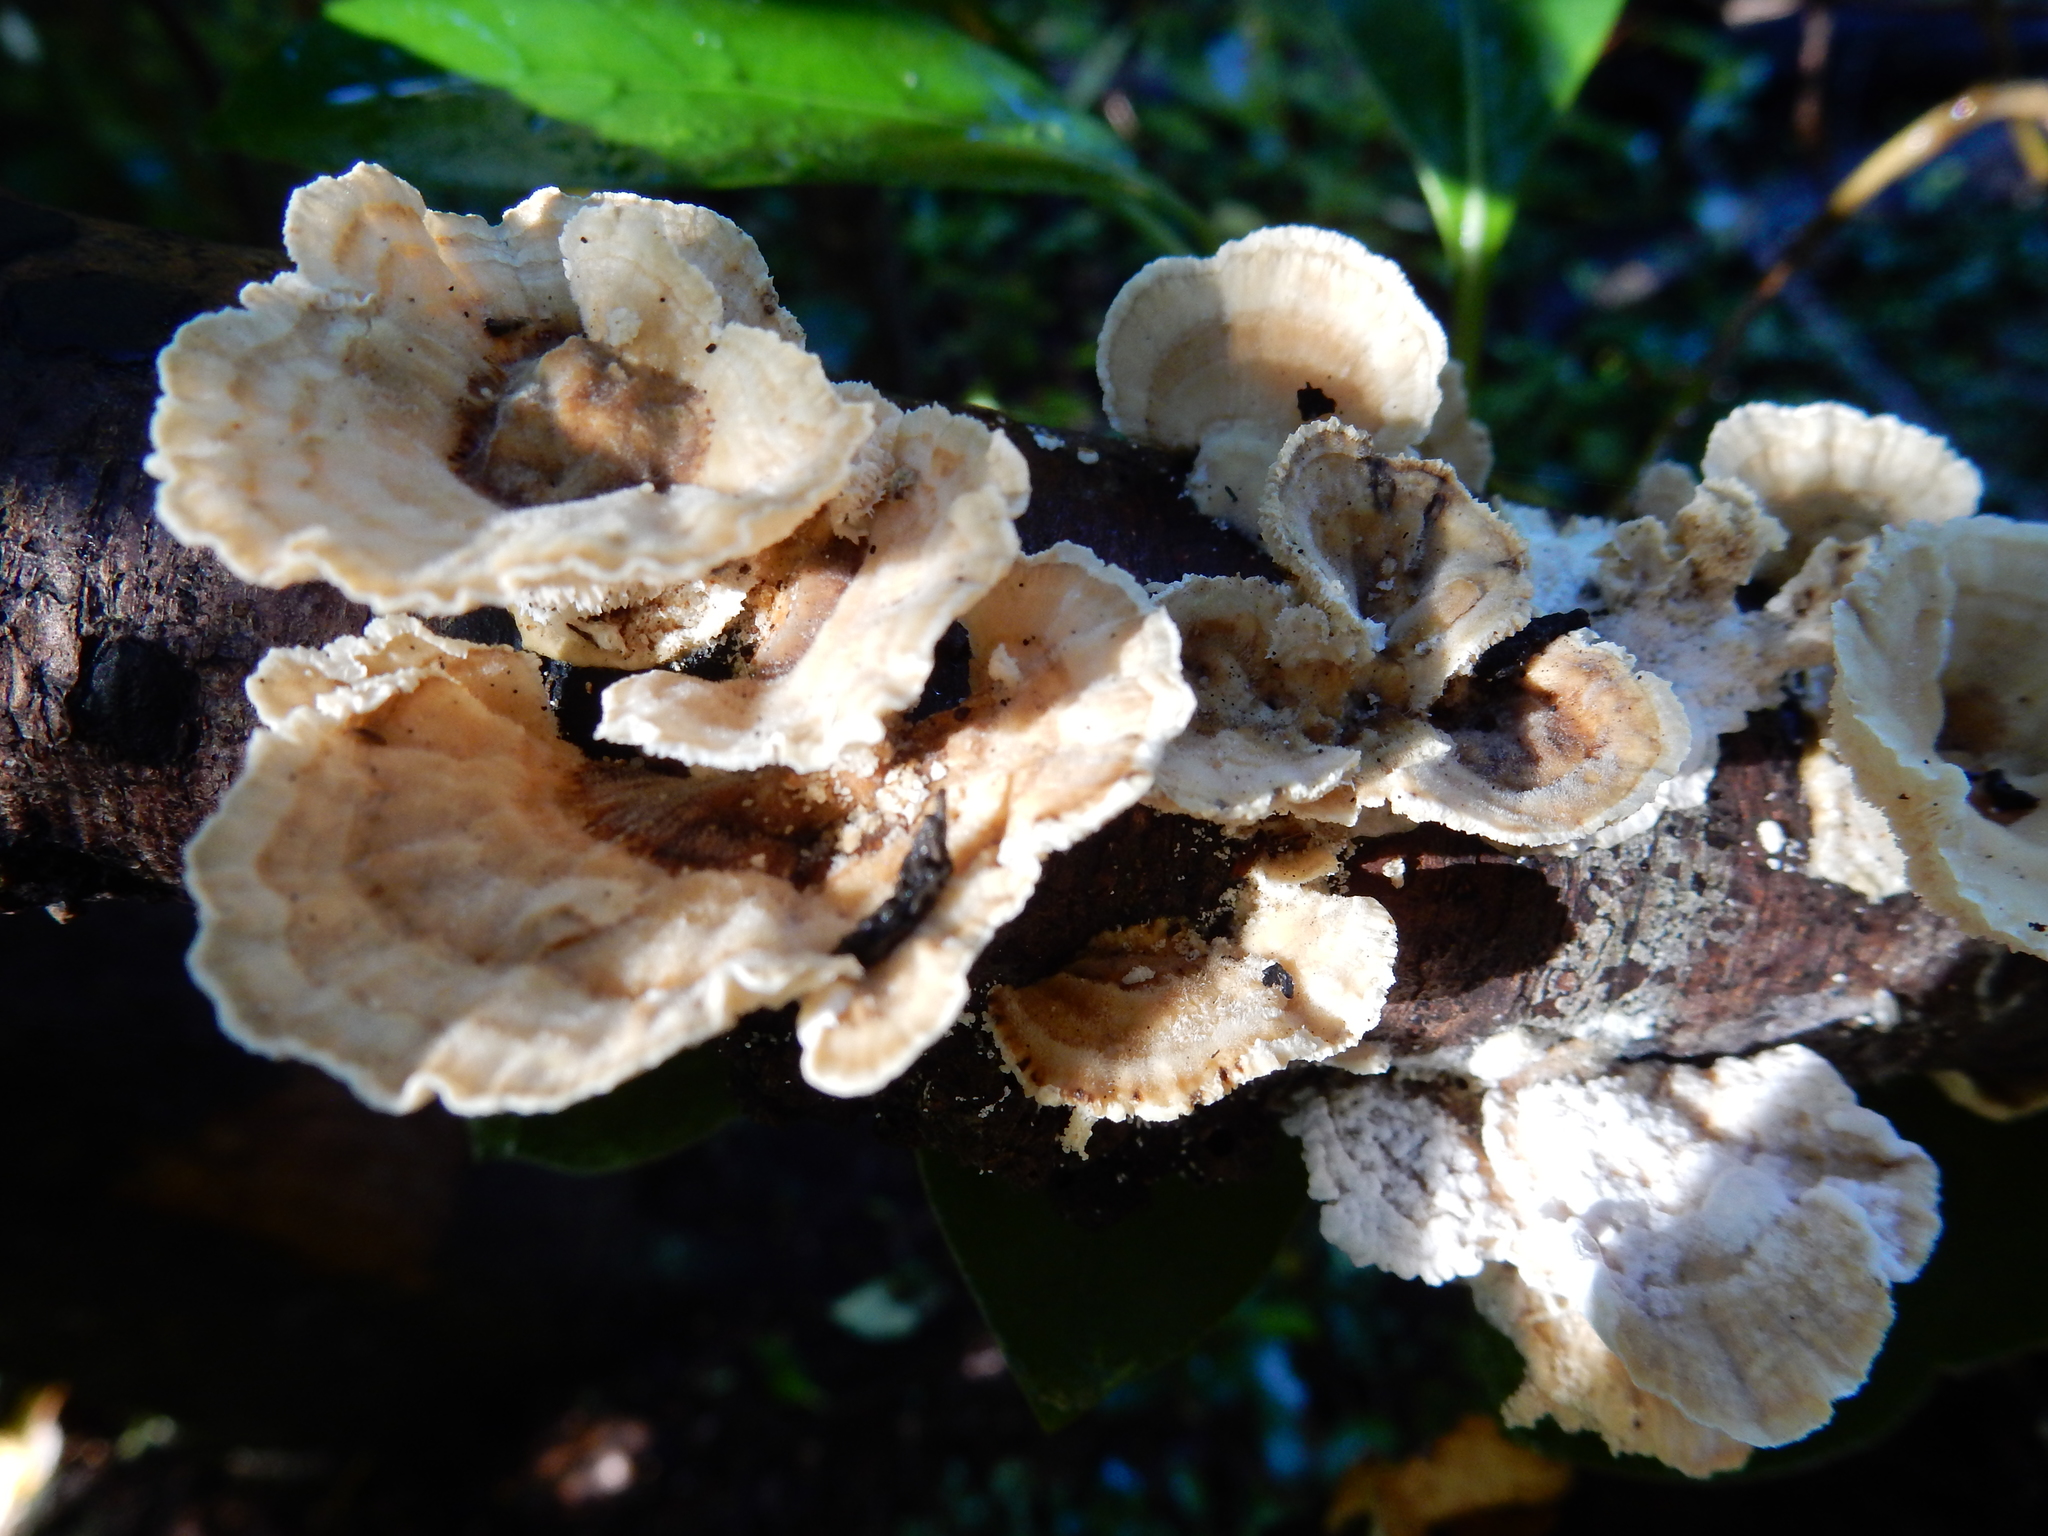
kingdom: Fungi
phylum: Basidiomycota
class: Agaricomycetes
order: Polyporales
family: Cerrenaceae
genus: Cerrena
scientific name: Cerrena zonata
